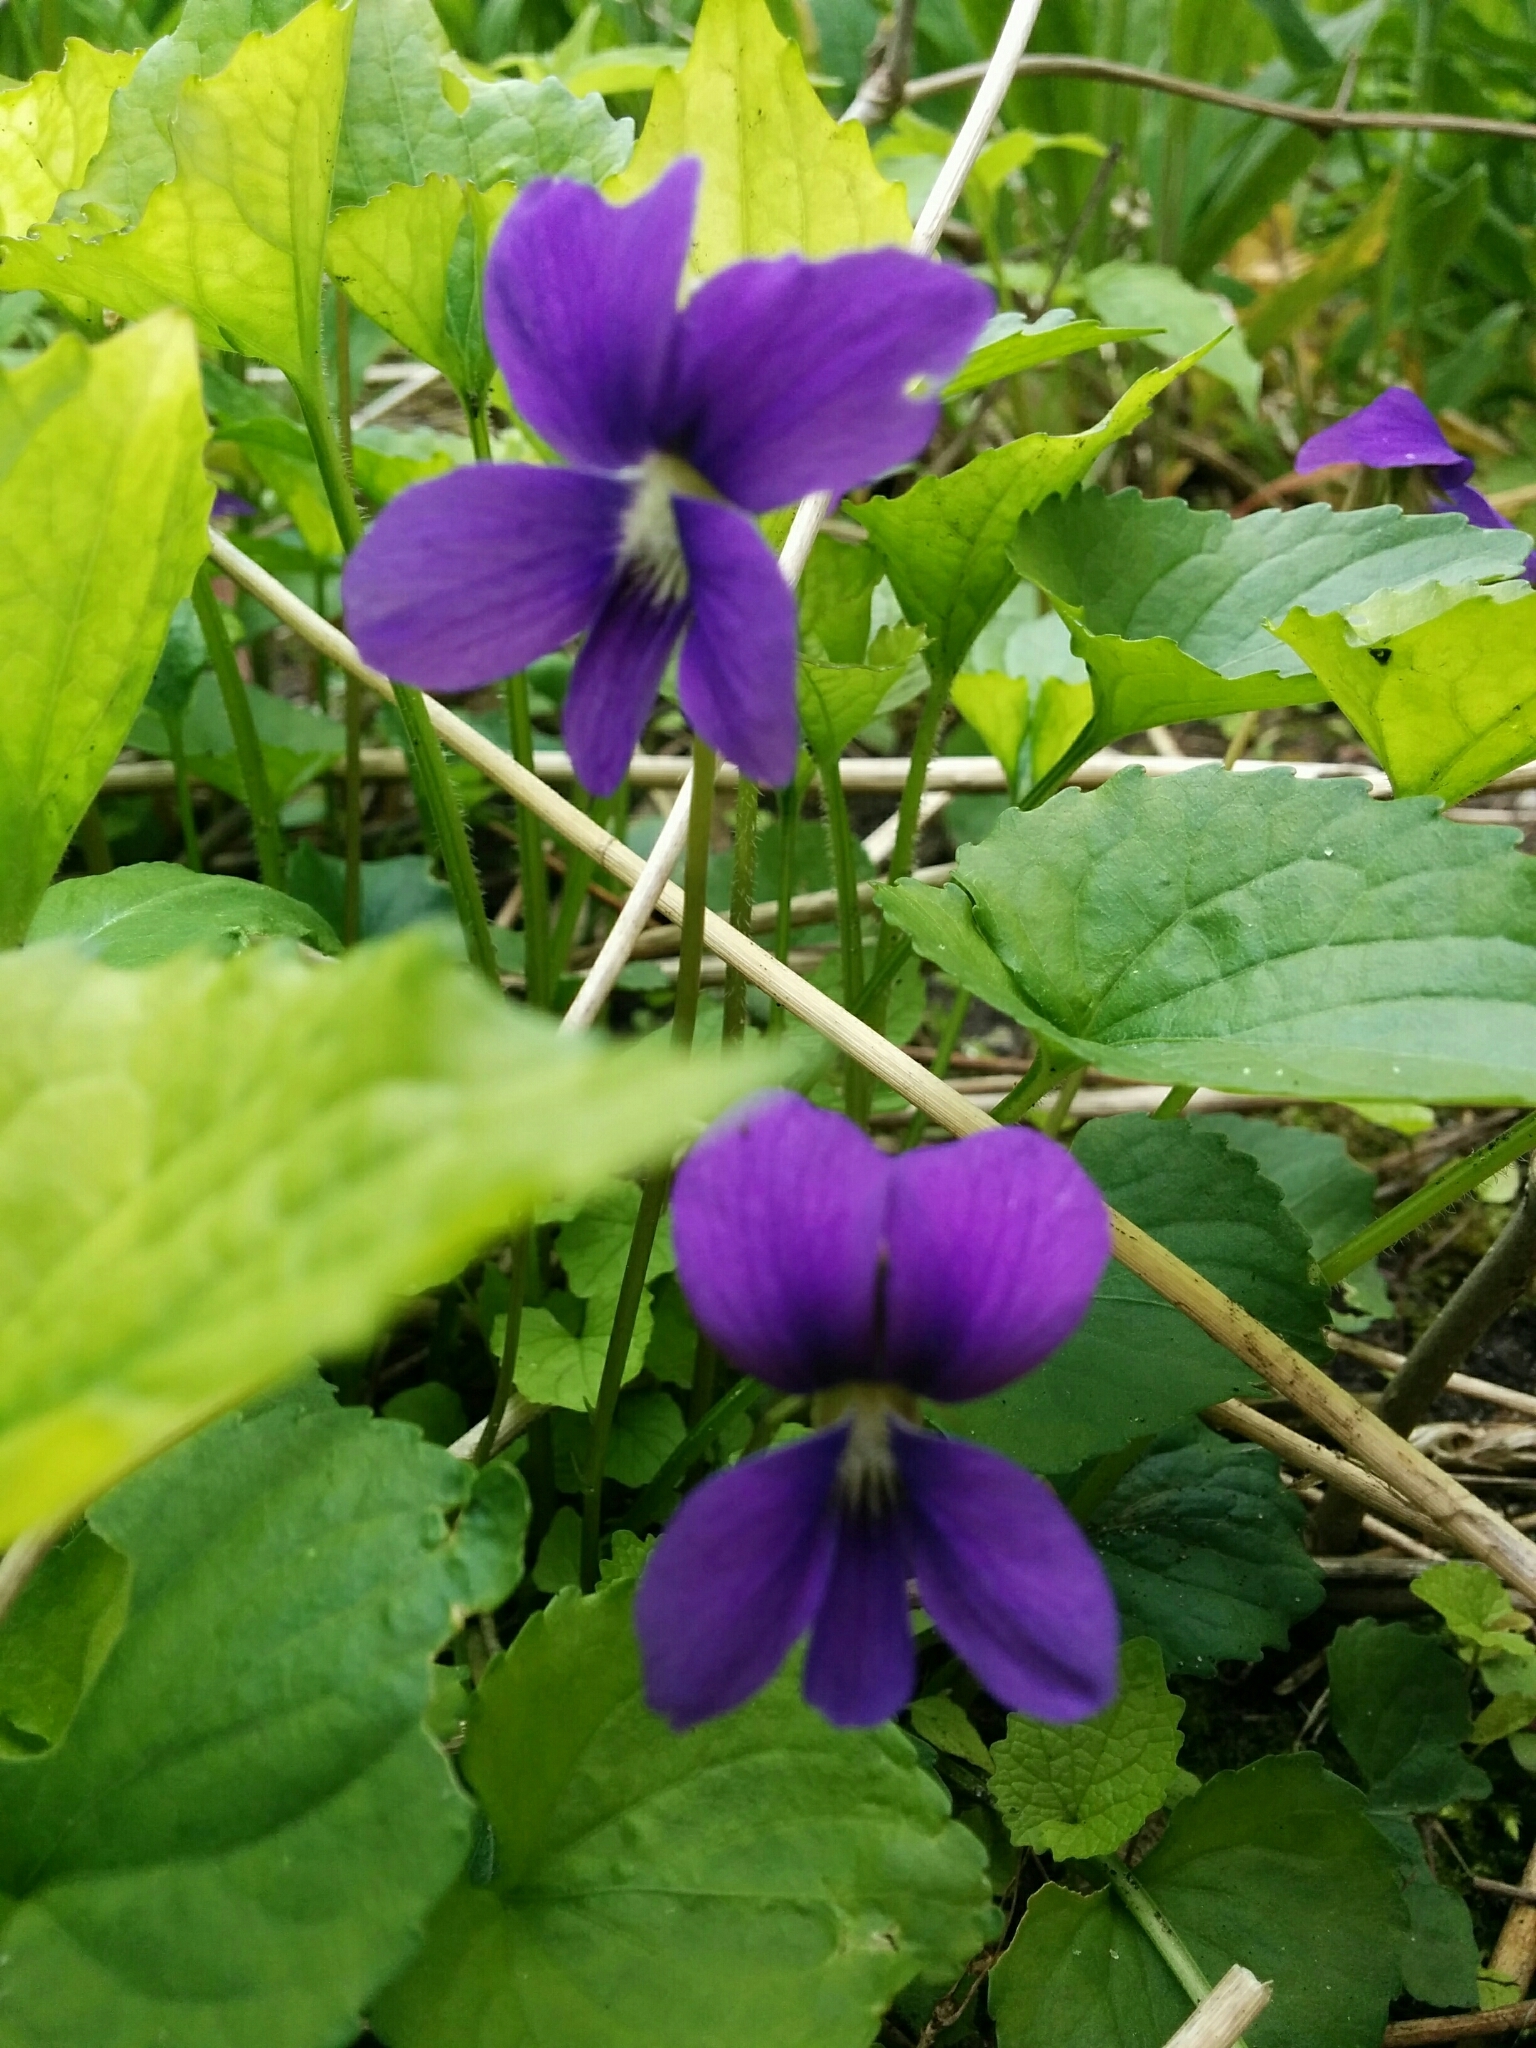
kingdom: Plantae
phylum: Tracheophyta
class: Magnoliopsida
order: Malpighiales
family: Violaceae
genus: Viola
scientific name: Viola sororia
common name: Dooryard violet
